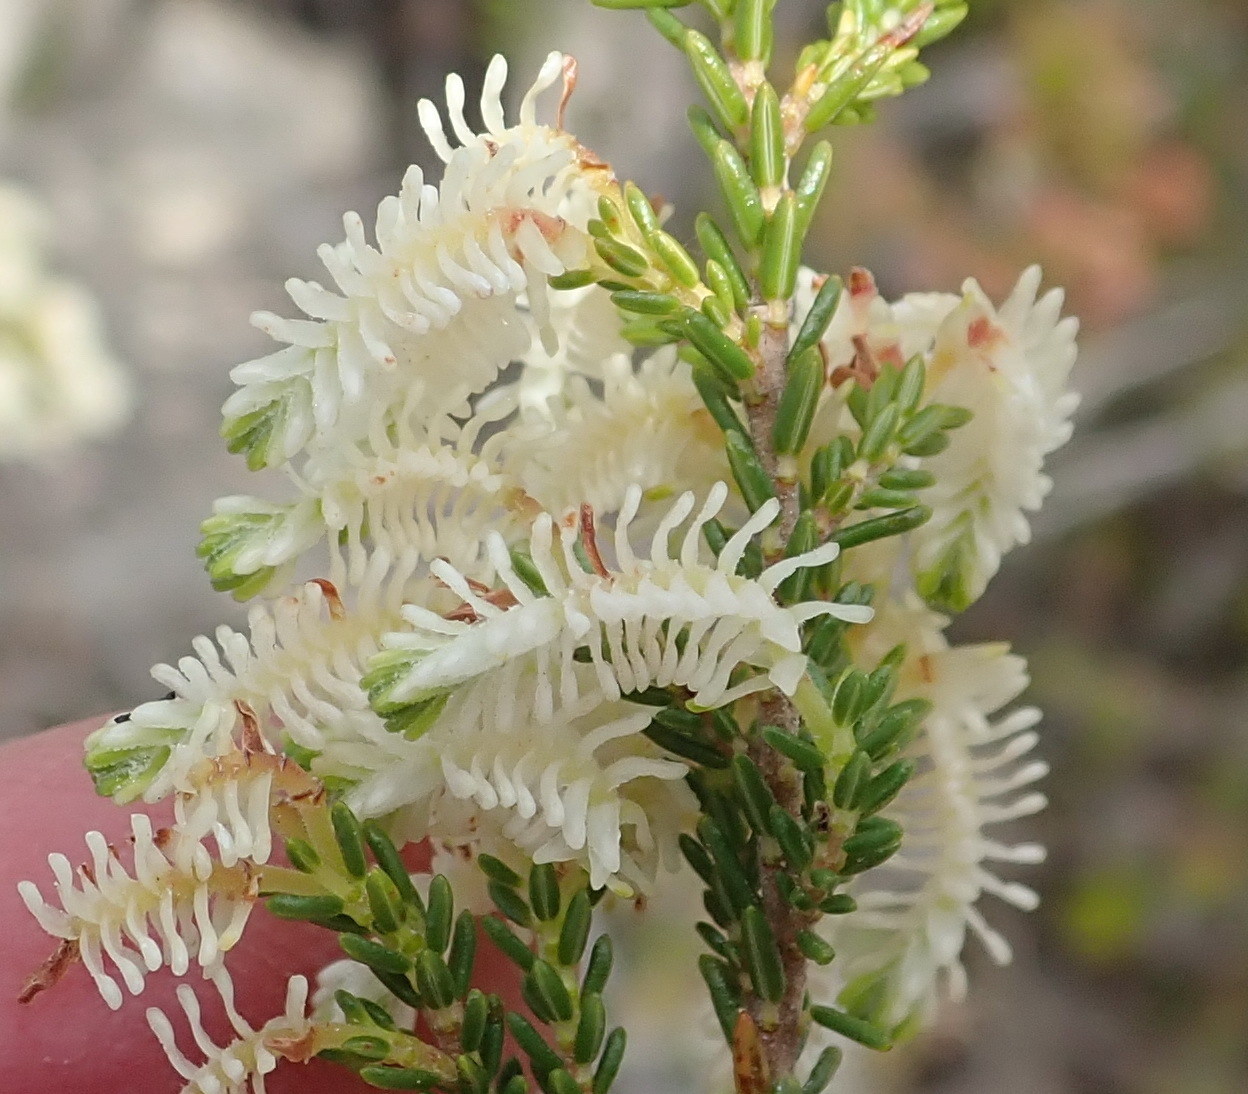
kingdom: Plantae
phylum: Tracheophyta
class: Magnoliopsida
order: Ericales
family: Ericaceae
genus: Erica
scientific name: Erica glomiflora
